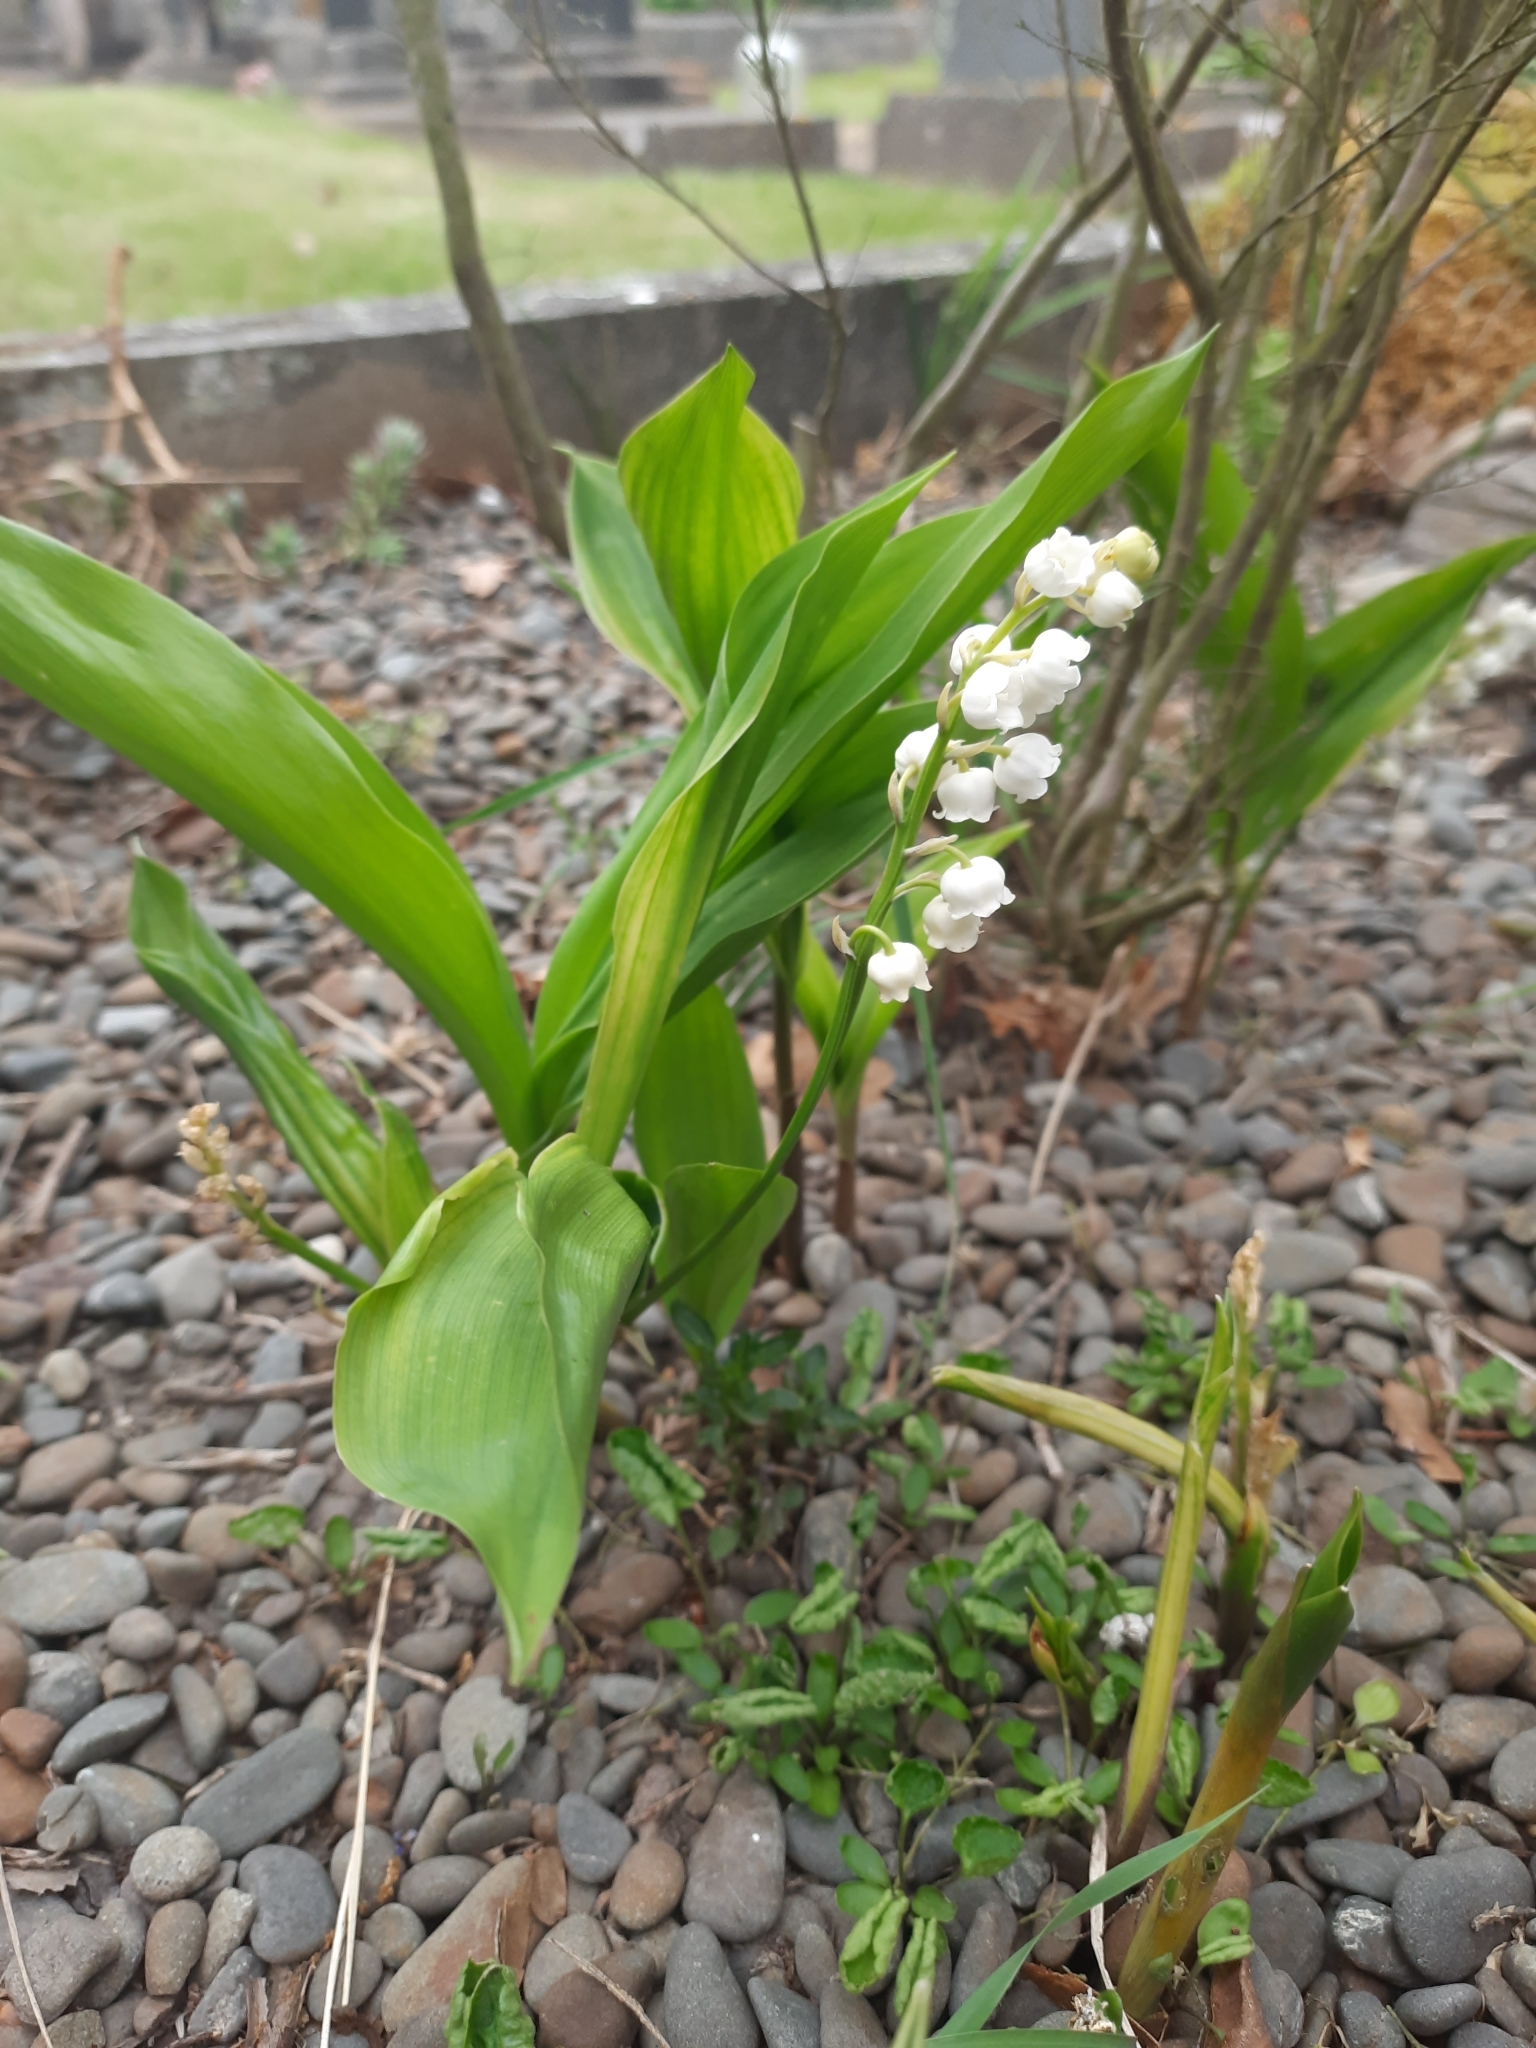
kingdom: Plantae
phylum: Tracheophyta
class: Liliopsida
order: Asparagales
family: Asparagaceae
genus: Convallaria
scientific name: Convallaria majalis
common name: Lily-of-the-valley
